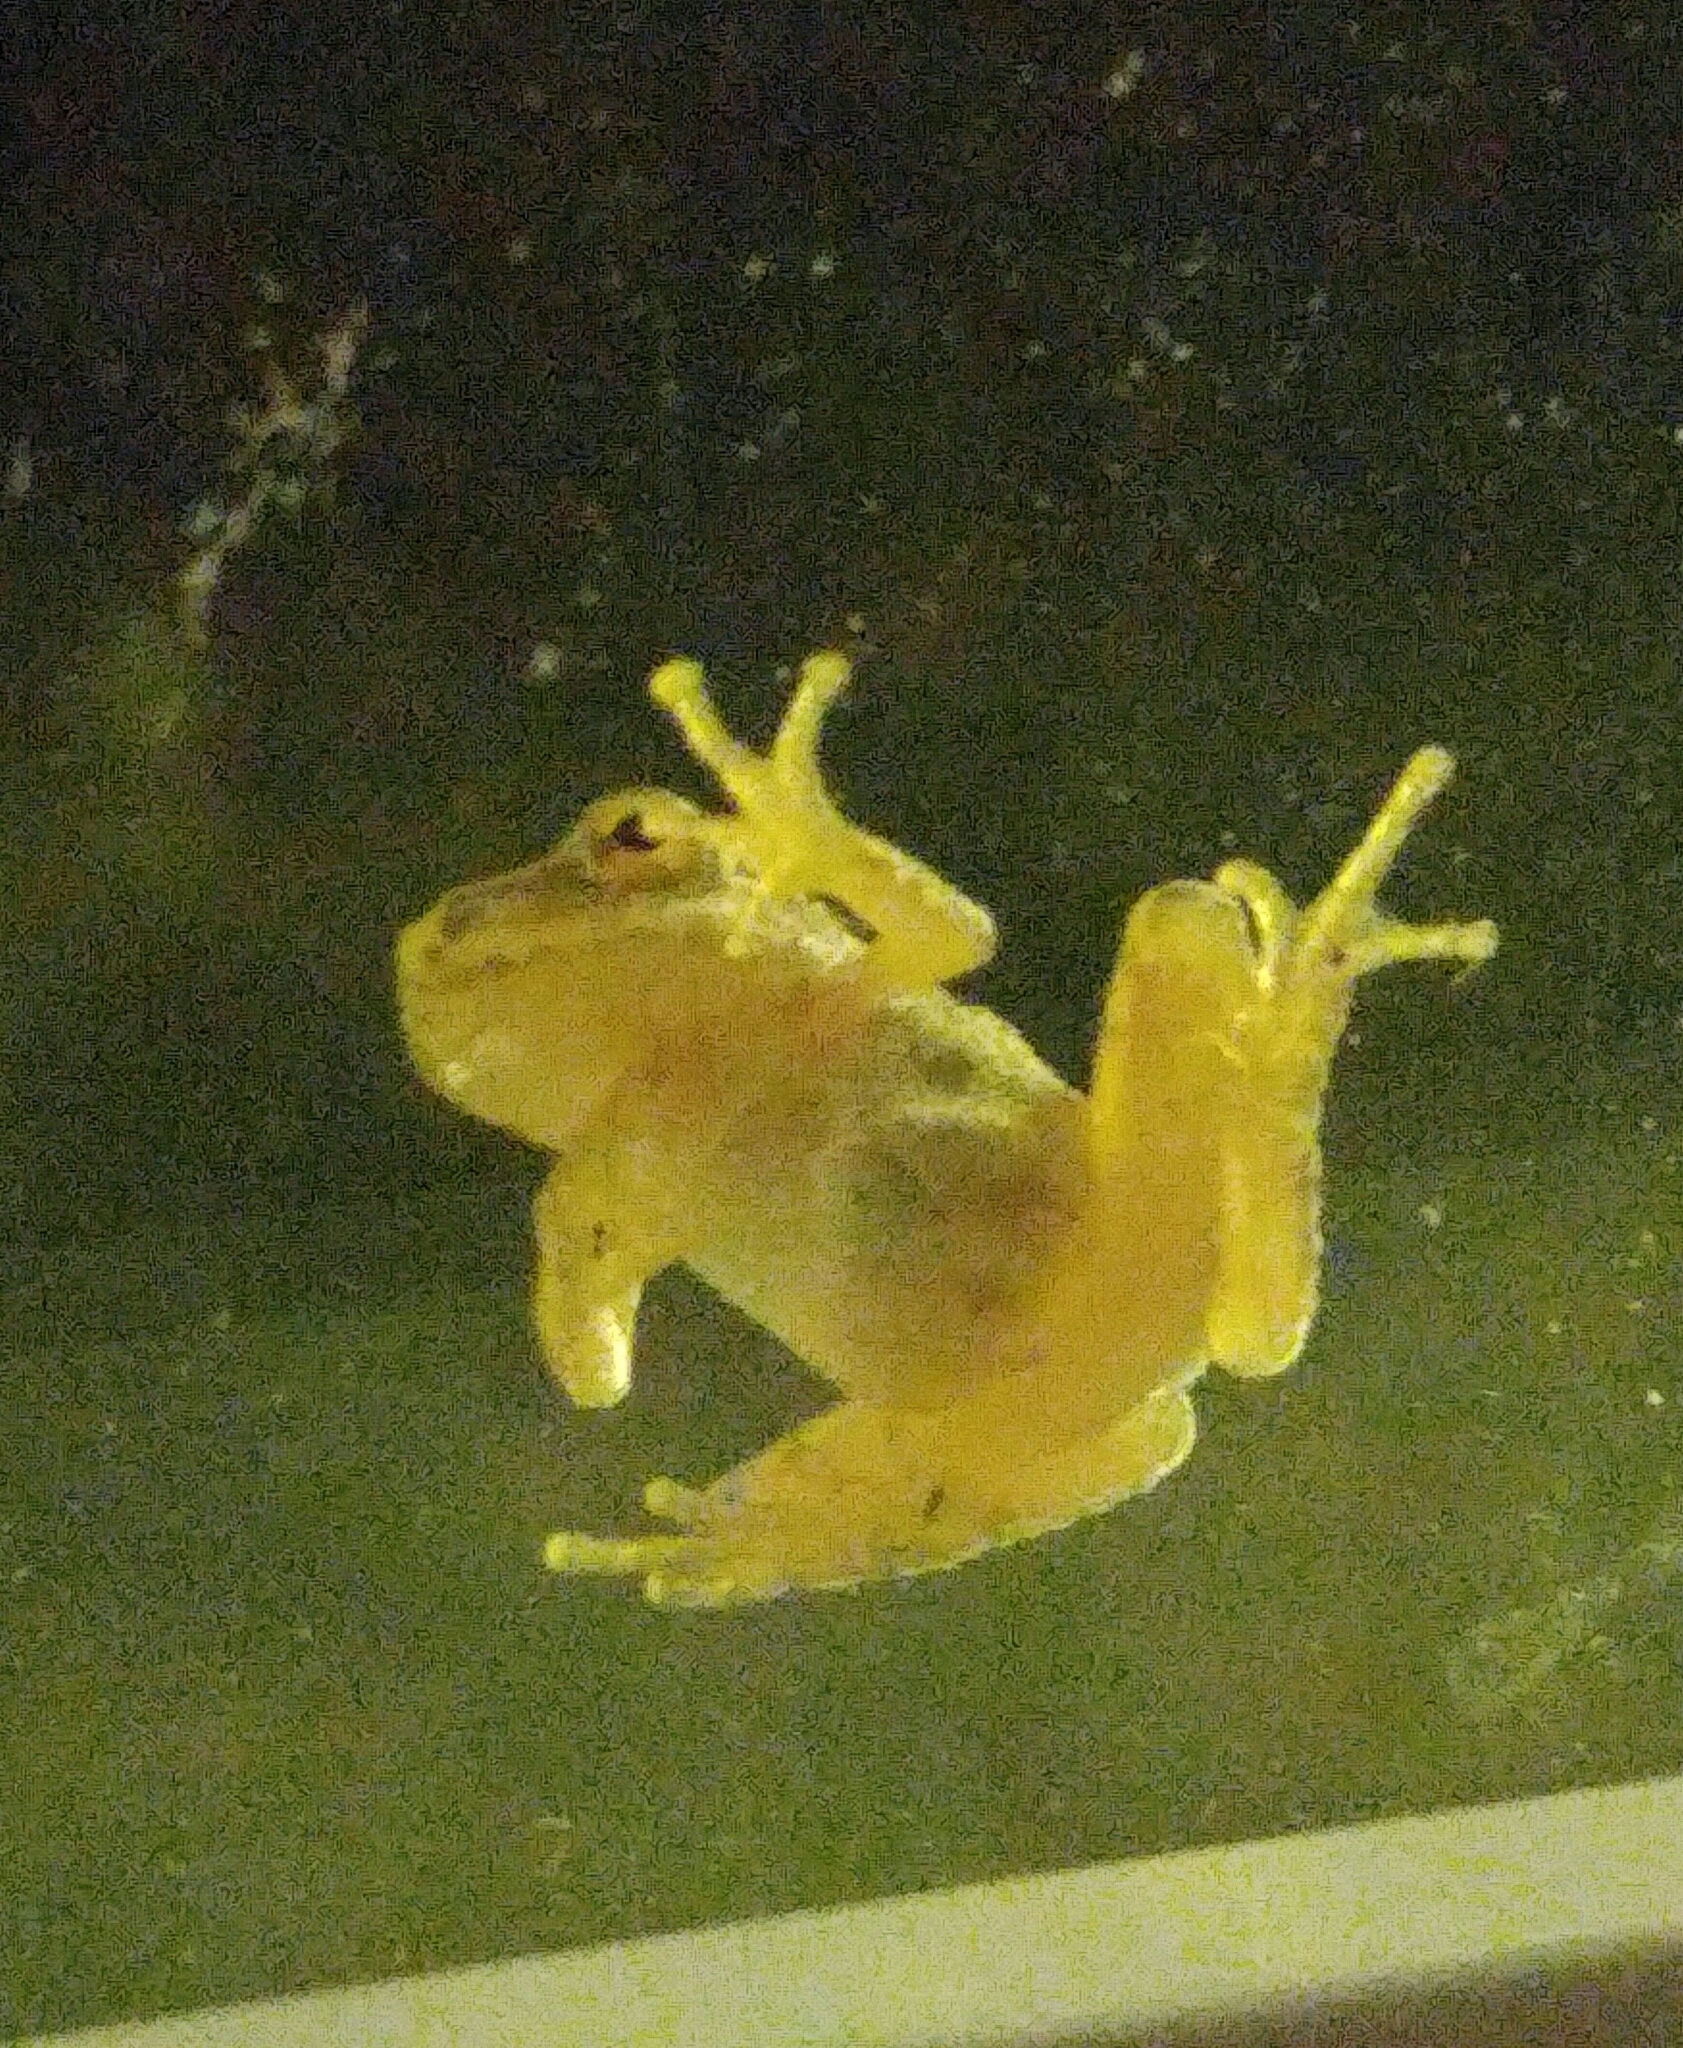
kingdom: Animalia
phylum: Chordata
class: Amphibia
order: Anura
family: Hylidae
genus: Pseudacris
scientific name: Pseudacris crucifer
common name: Spring peeper
